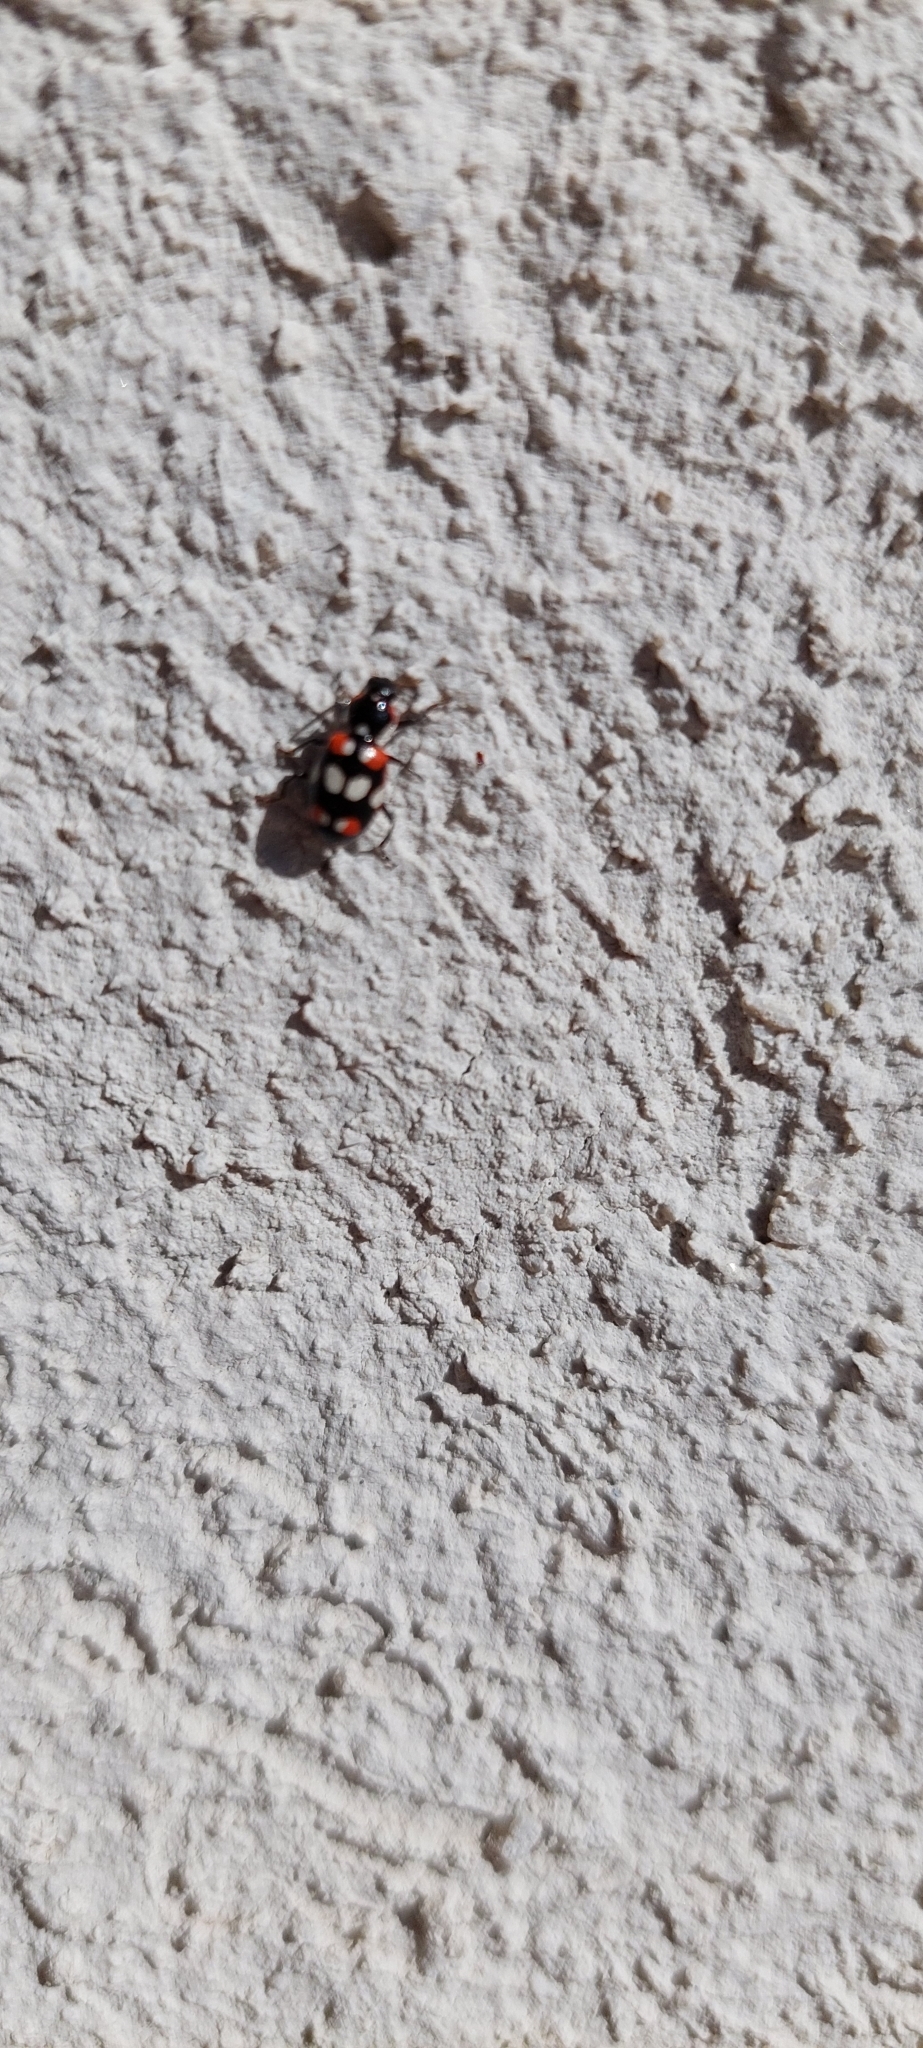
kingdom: Animalia
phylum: Arthropoda
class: Insecta
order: Coleoptera
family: Coccinellidae
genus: Eriopis
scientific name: Eriopis connexa
